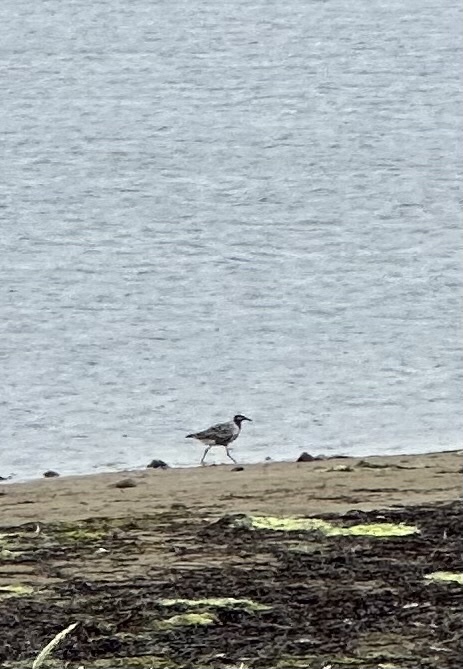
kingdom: Animalia
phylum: Chordata
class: Aves
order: Charadriiformes
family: Charadriidae
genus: Pluvialis
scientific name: Pluvialis squatarola
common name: Grey plover
